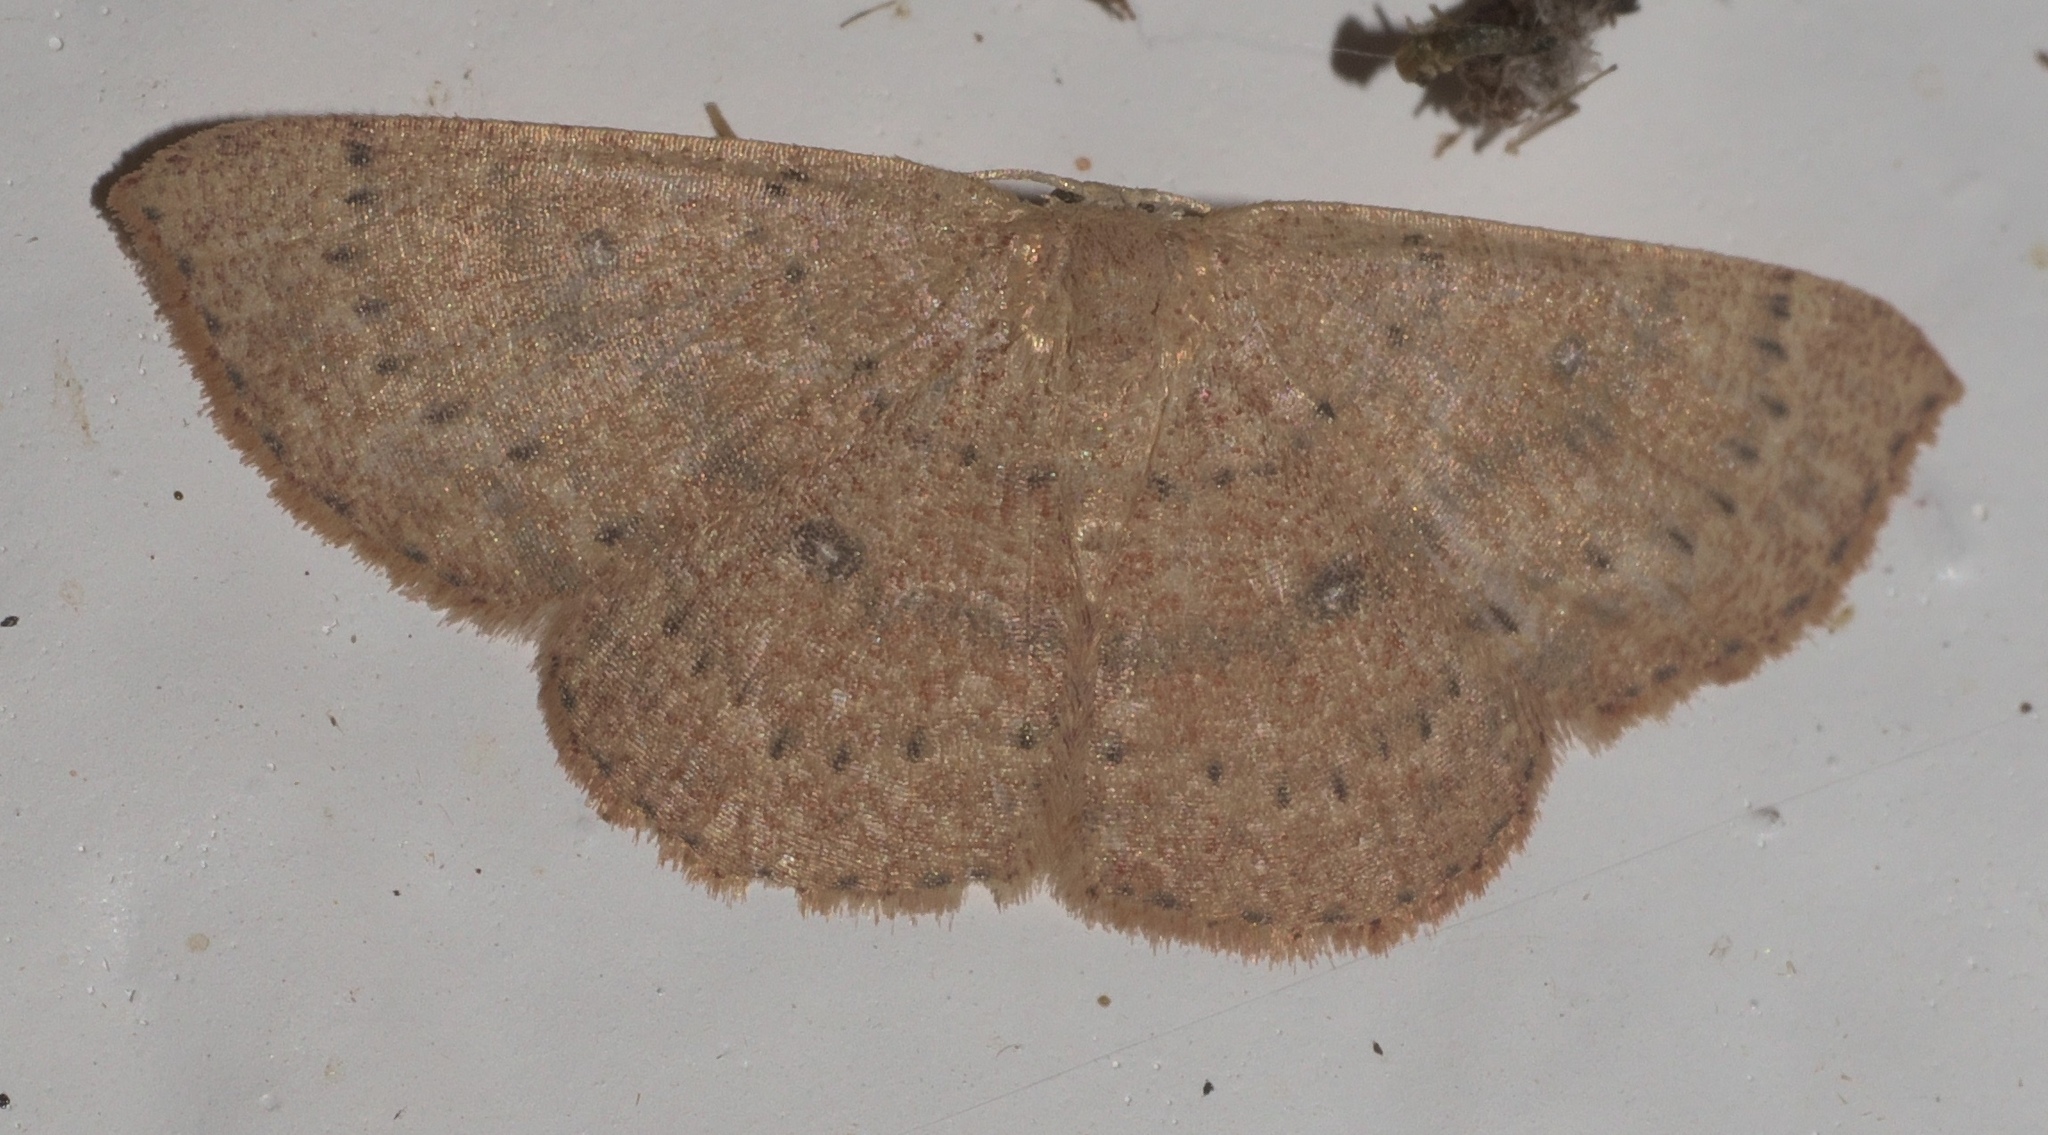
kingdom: Animalia
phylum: Arthropoda
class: Insecta
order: Lepidoptera
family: Geometridae
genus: Cyclophora
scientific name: Cyclophora packardi
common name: Packard's wave
